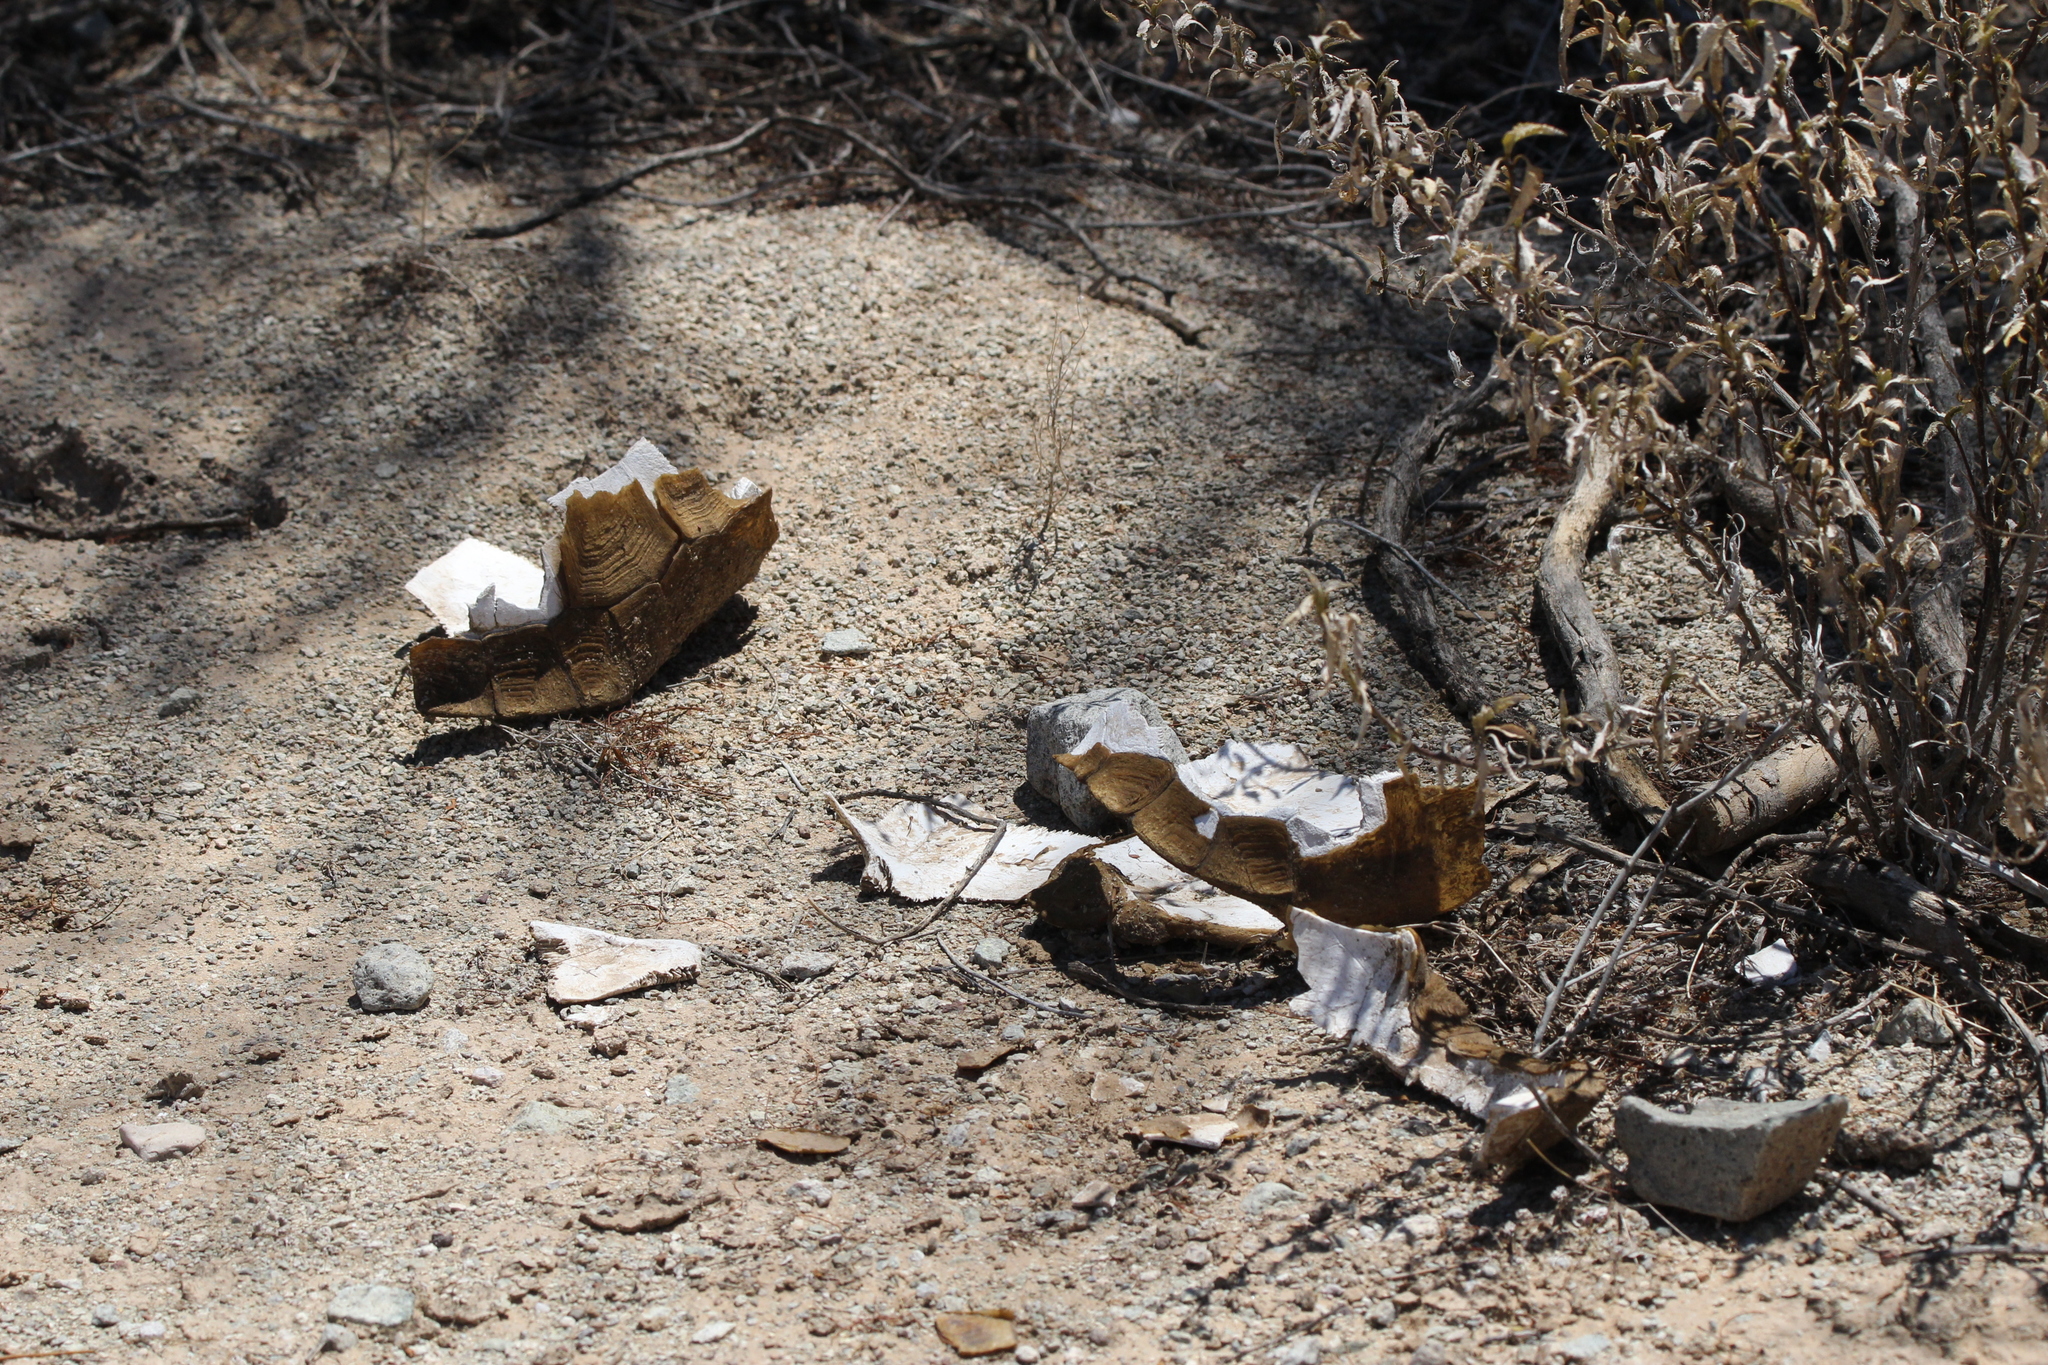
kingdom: Animalia
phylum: Chordata
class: Testudines
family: Testudinidae
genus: Gopherus
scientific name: Gopherus morafkai
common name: Sonoran desert tortoise
